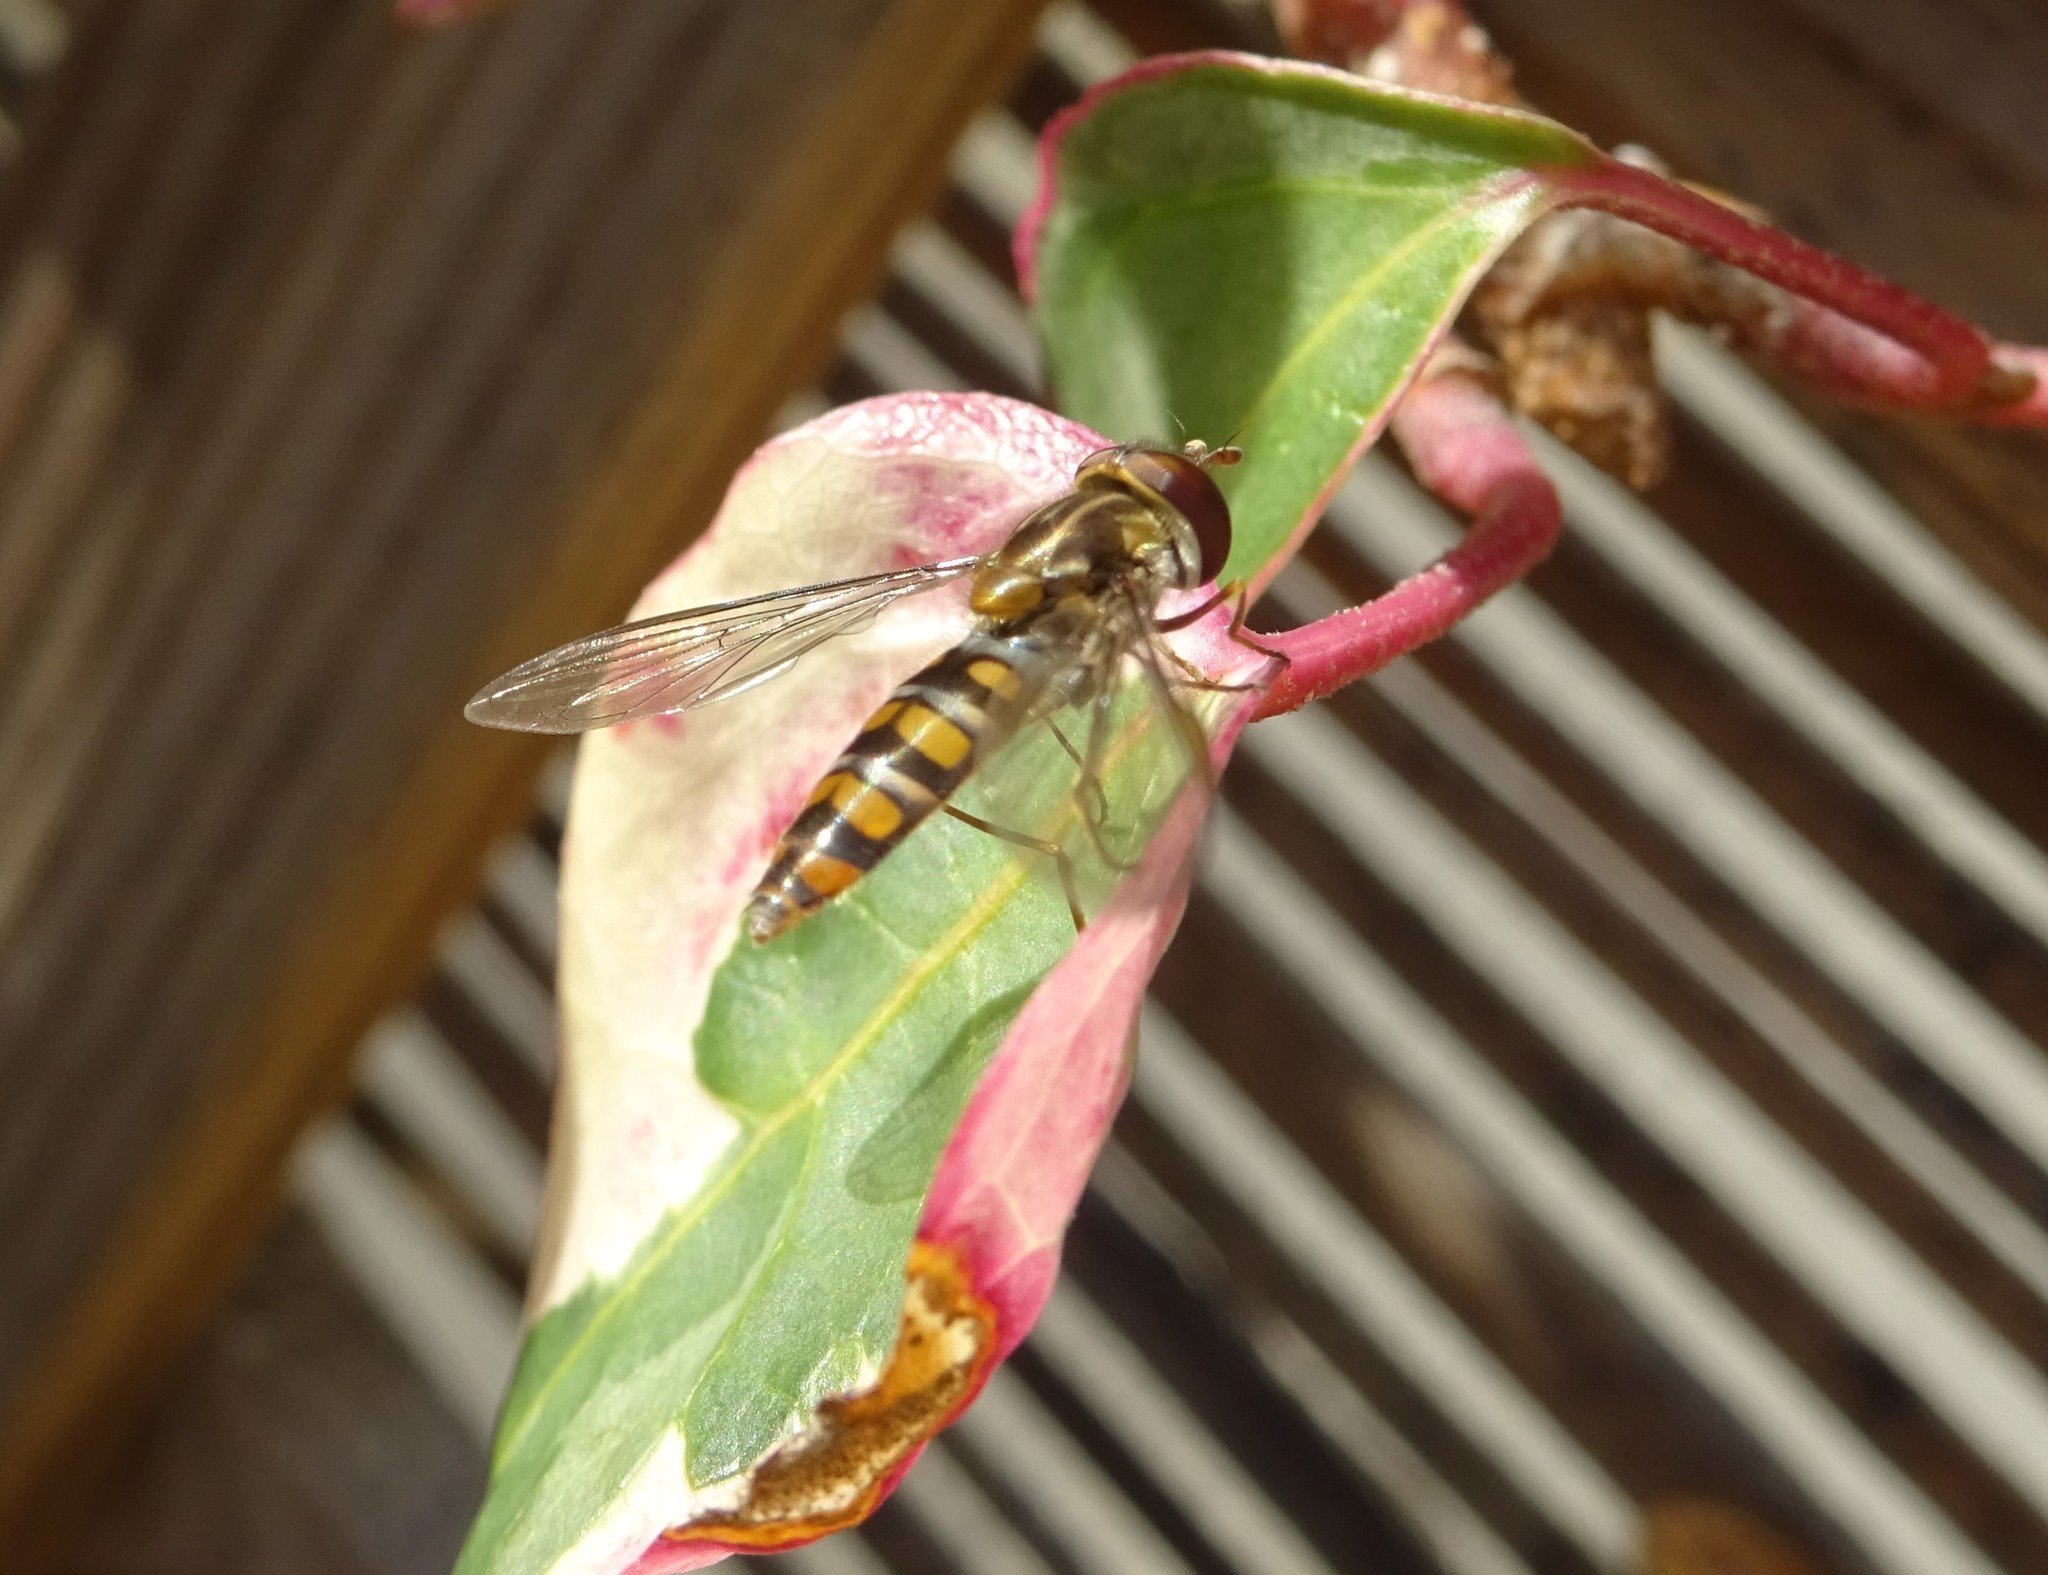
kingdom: Animalia
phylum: Arthropoda
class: Insecta
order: Diptera
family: Syrphidae
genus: Episyrphus
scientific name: Episyrphus balteatus
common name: Marmalade hoverfly
